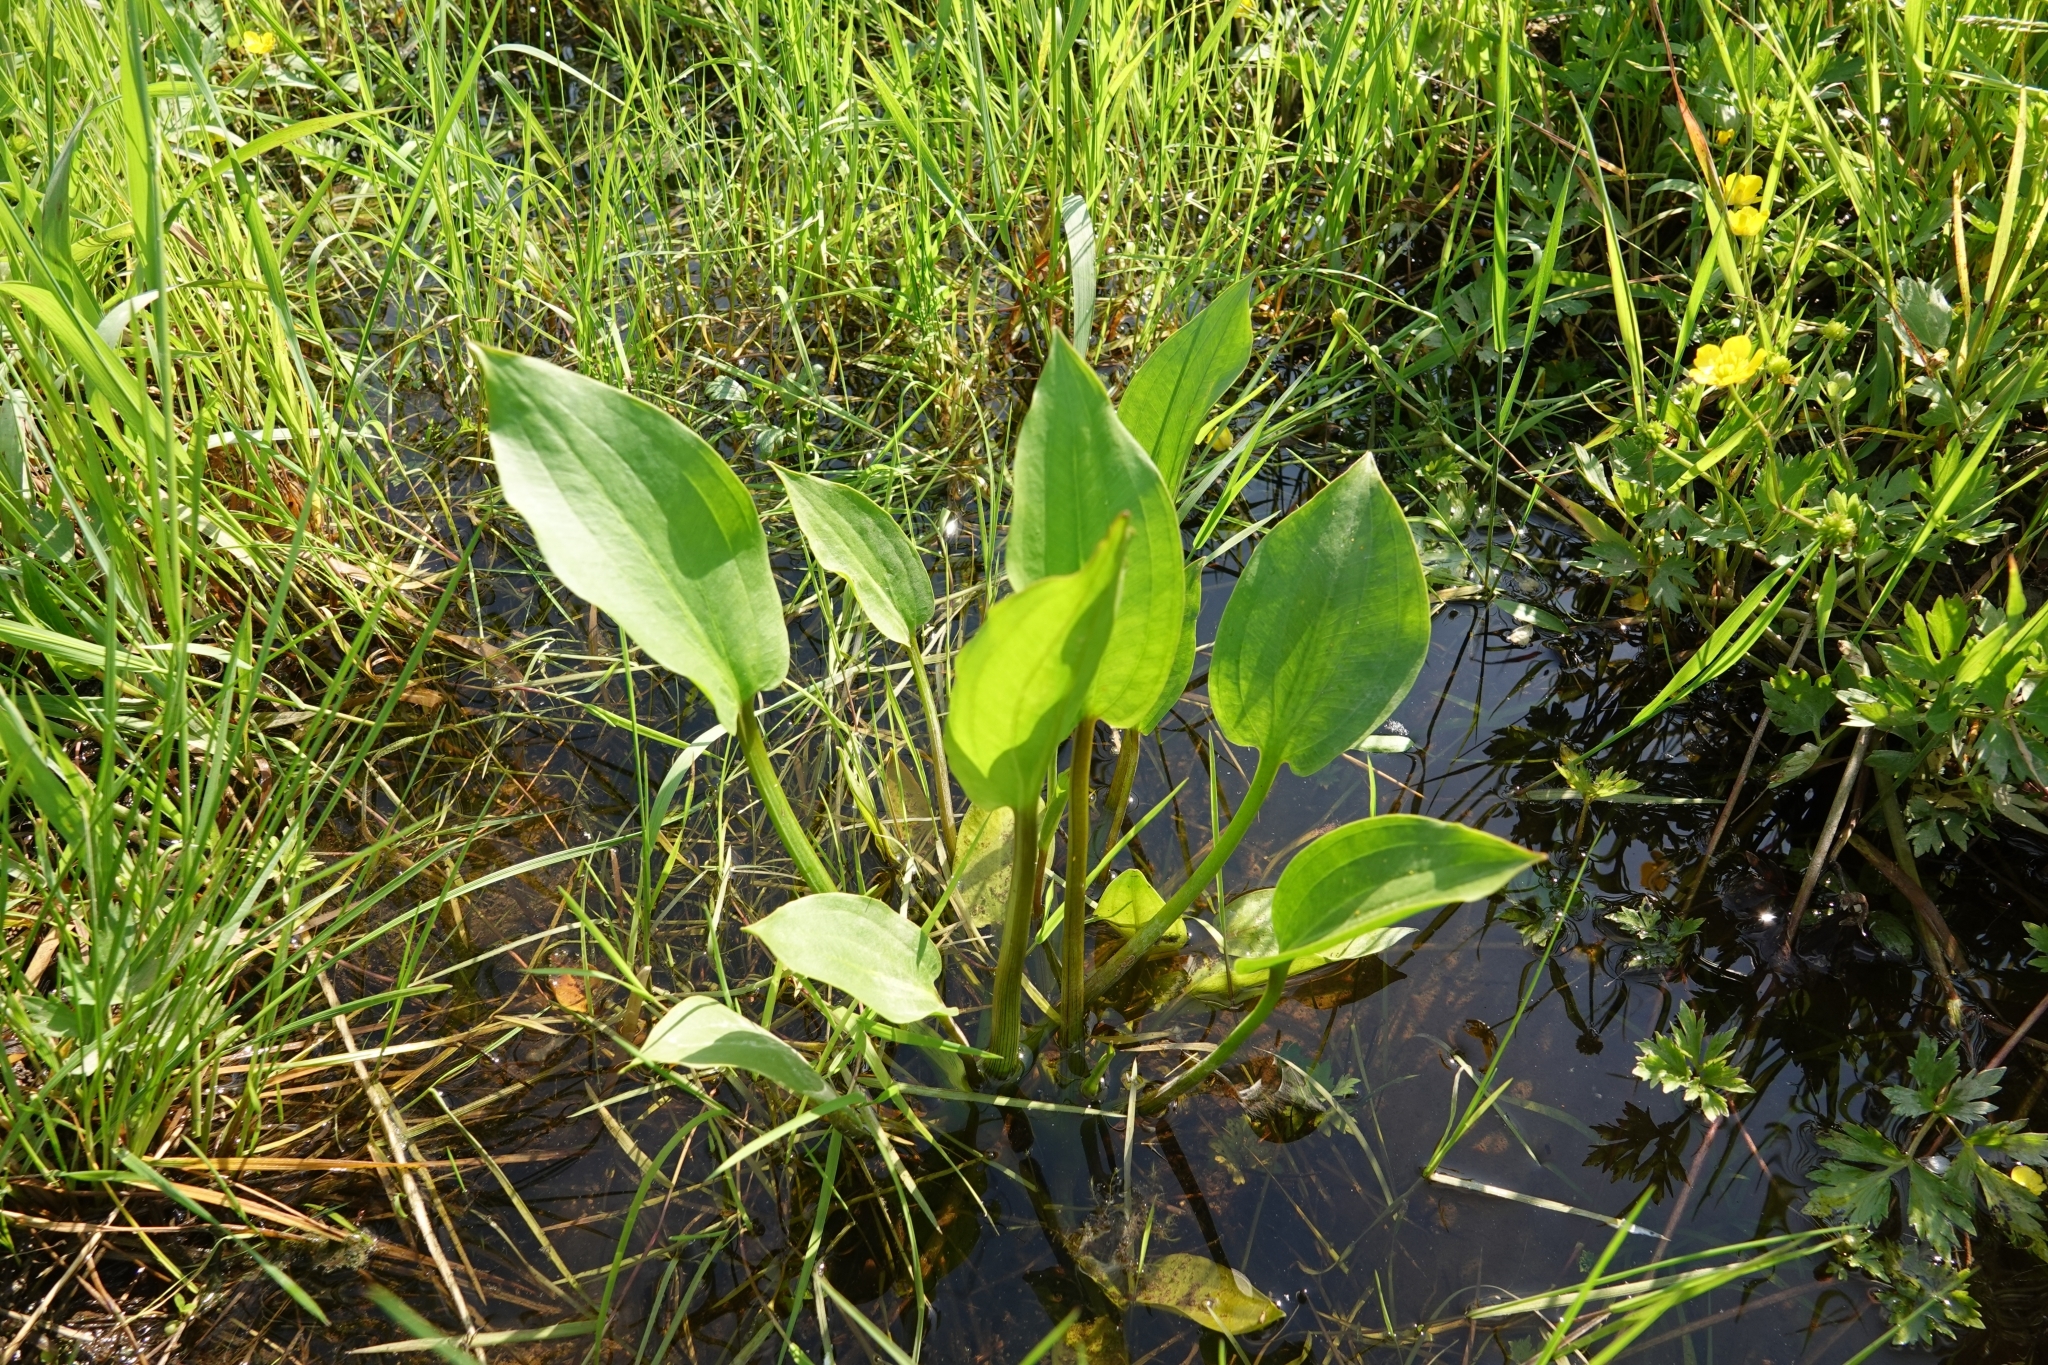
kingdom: Plantae
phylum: Tracheophyta
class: Liliopsida
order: Alismatales
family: Alismataceae
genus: Alisma
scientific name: Alisma plantago-aquatica
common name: Water-plantain
